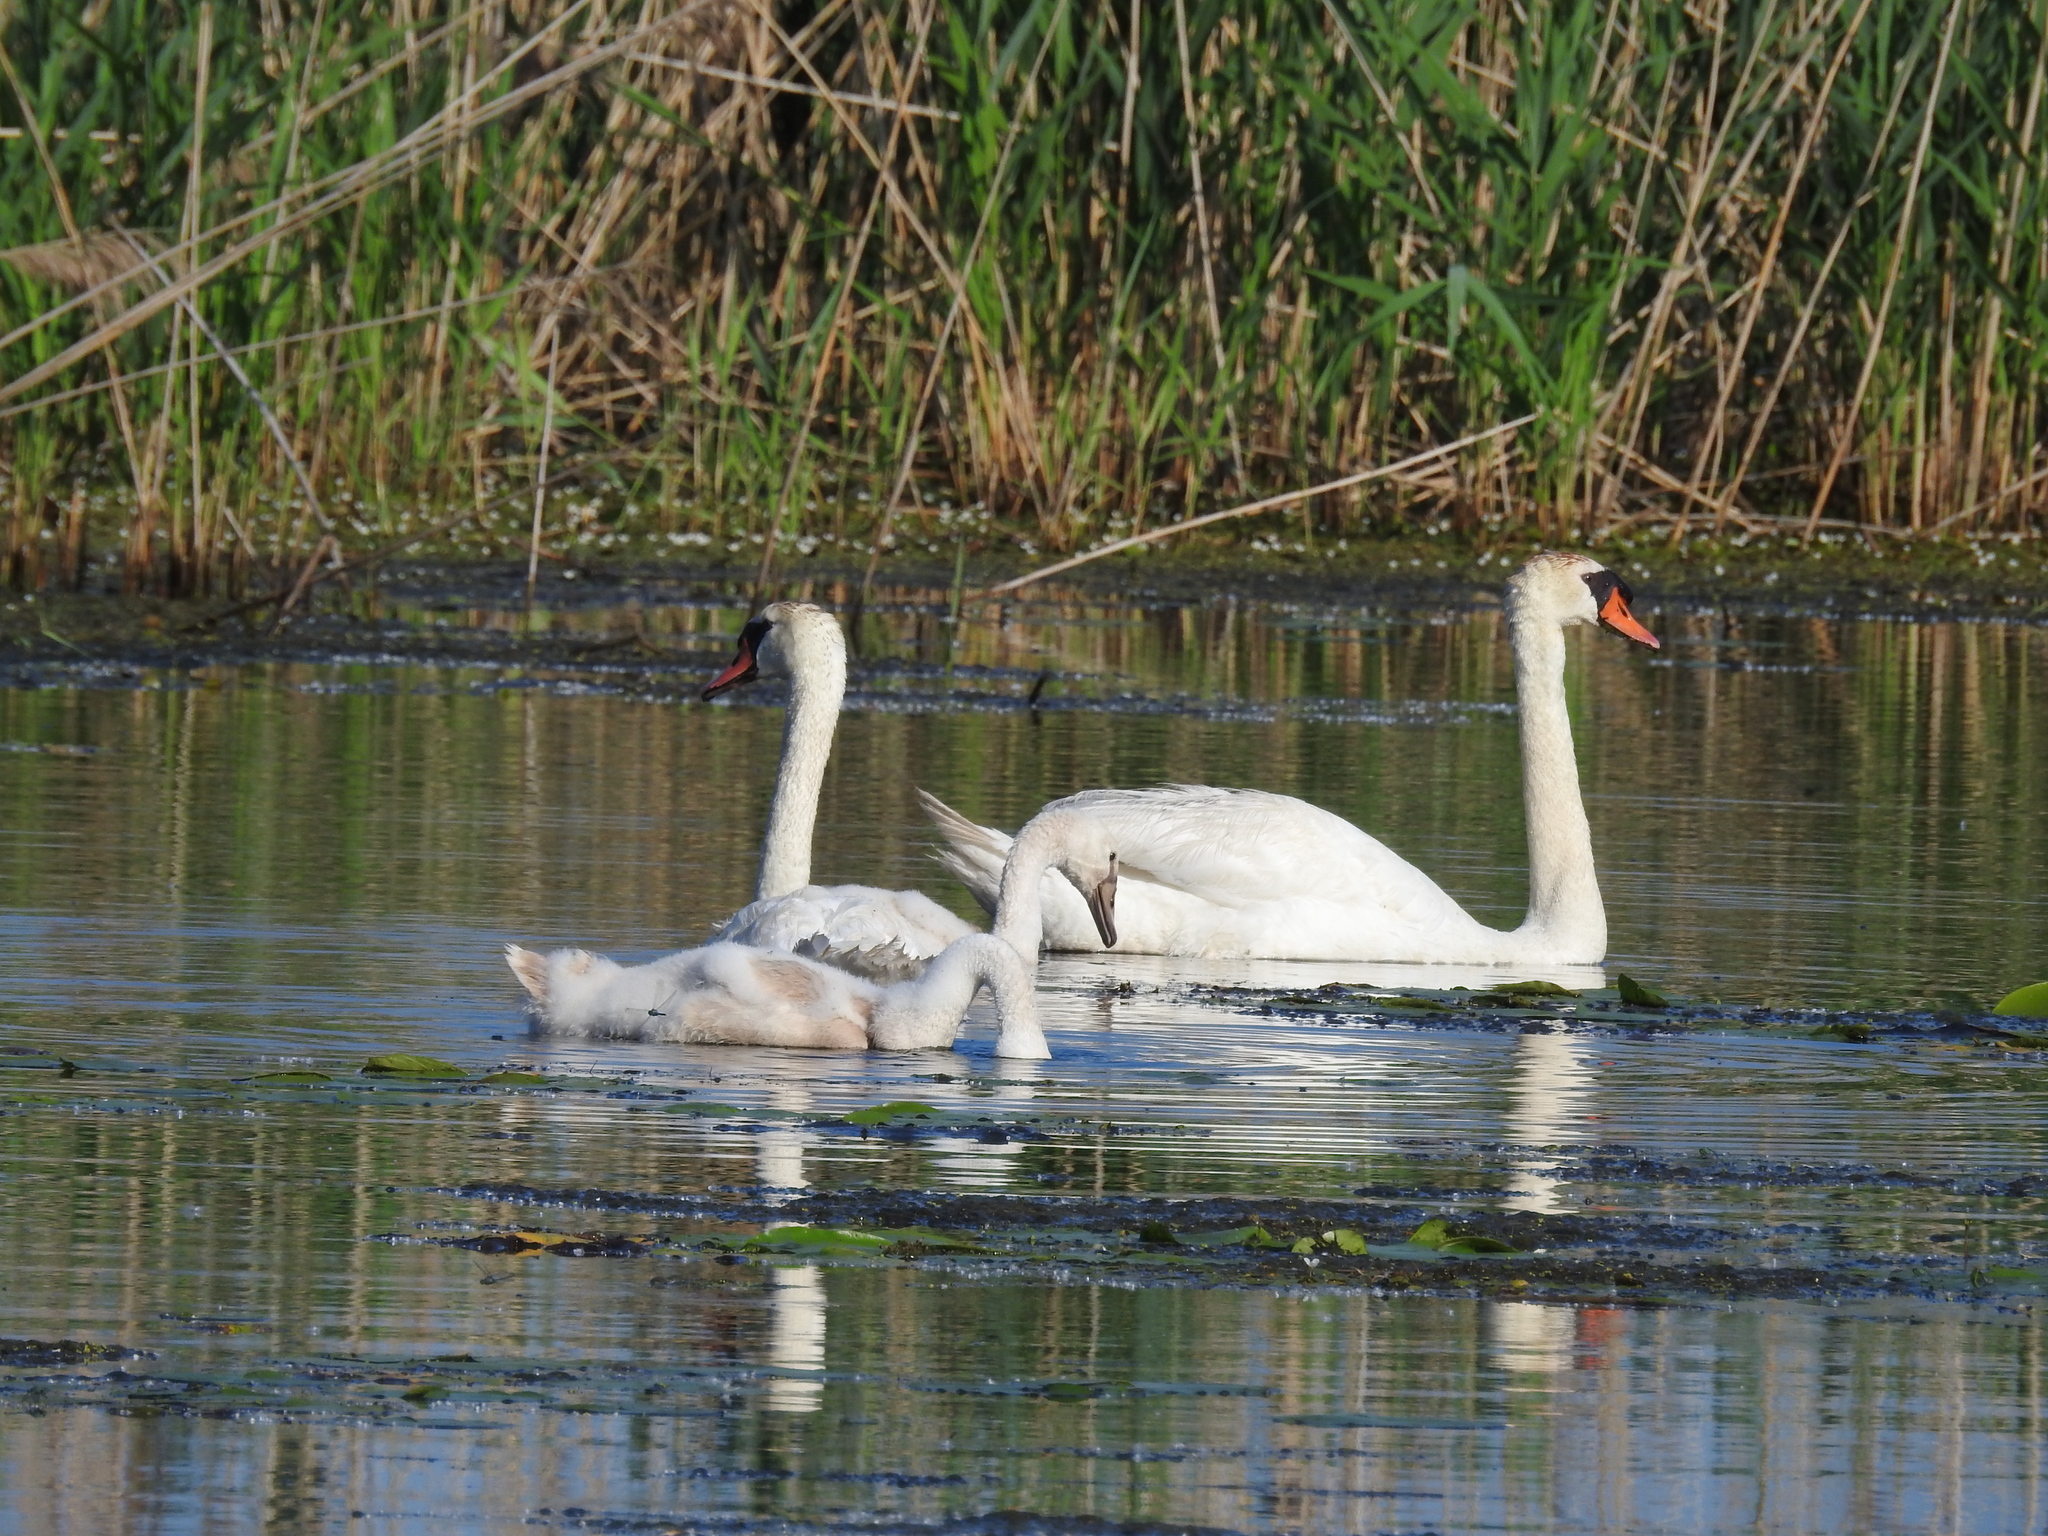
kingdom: Animalia
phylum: Chordata
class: Aves
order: Anseriformes
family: Anatidae
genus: Cygnus
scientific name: Cygnus olor
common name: Mute swan
